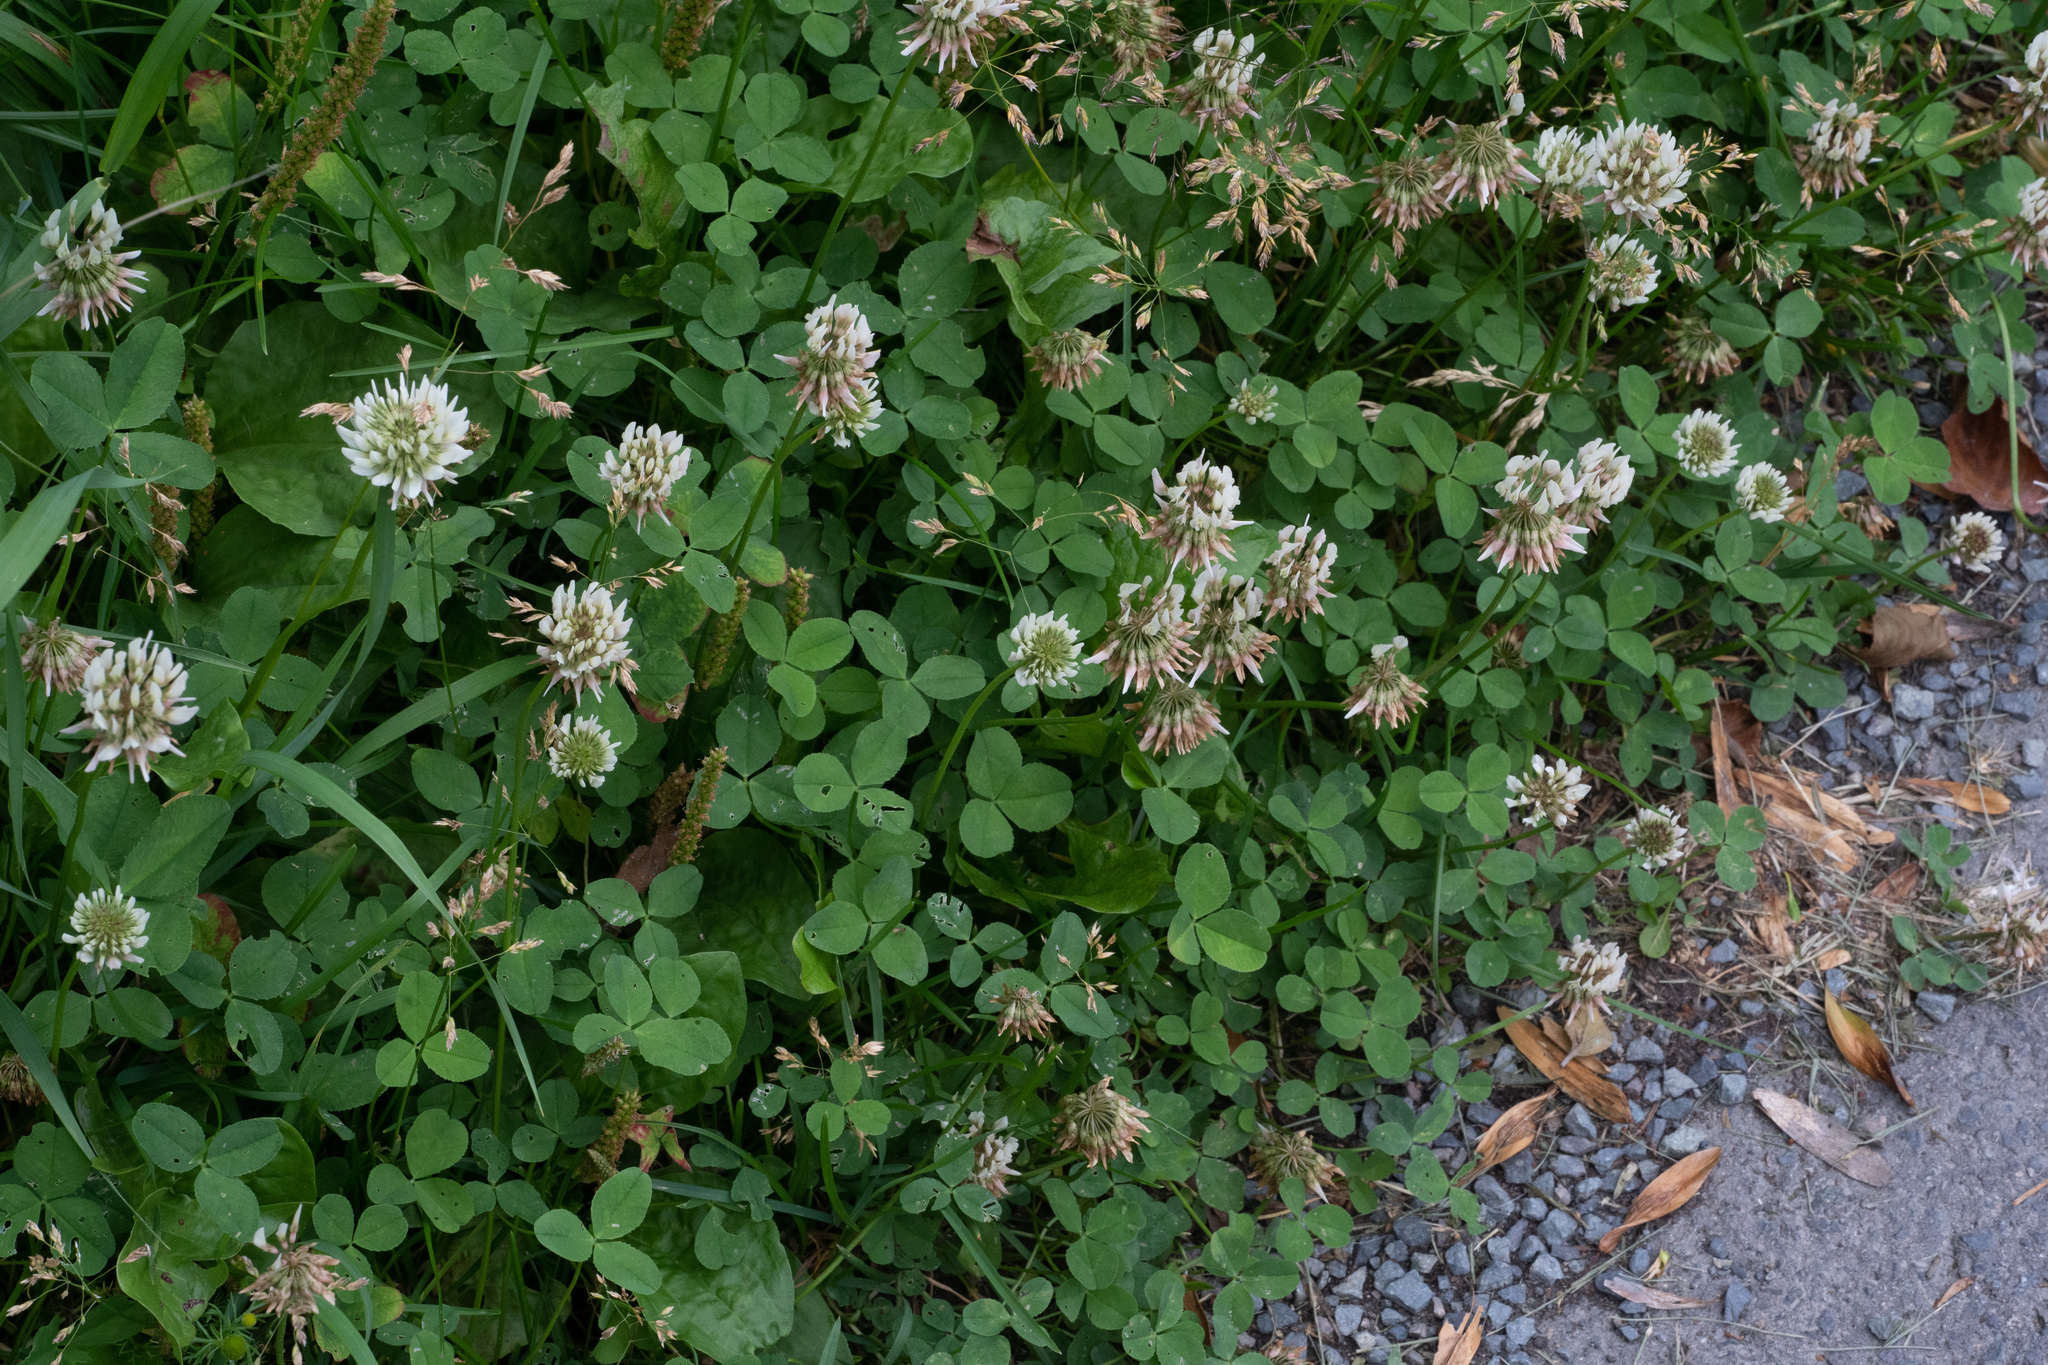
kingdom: Plantae
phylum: Tracheophyta
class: Magnoliopsida
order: Fabales
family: Fabaceae
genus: Trifolium
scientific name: Trifolium repens
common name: White clover
